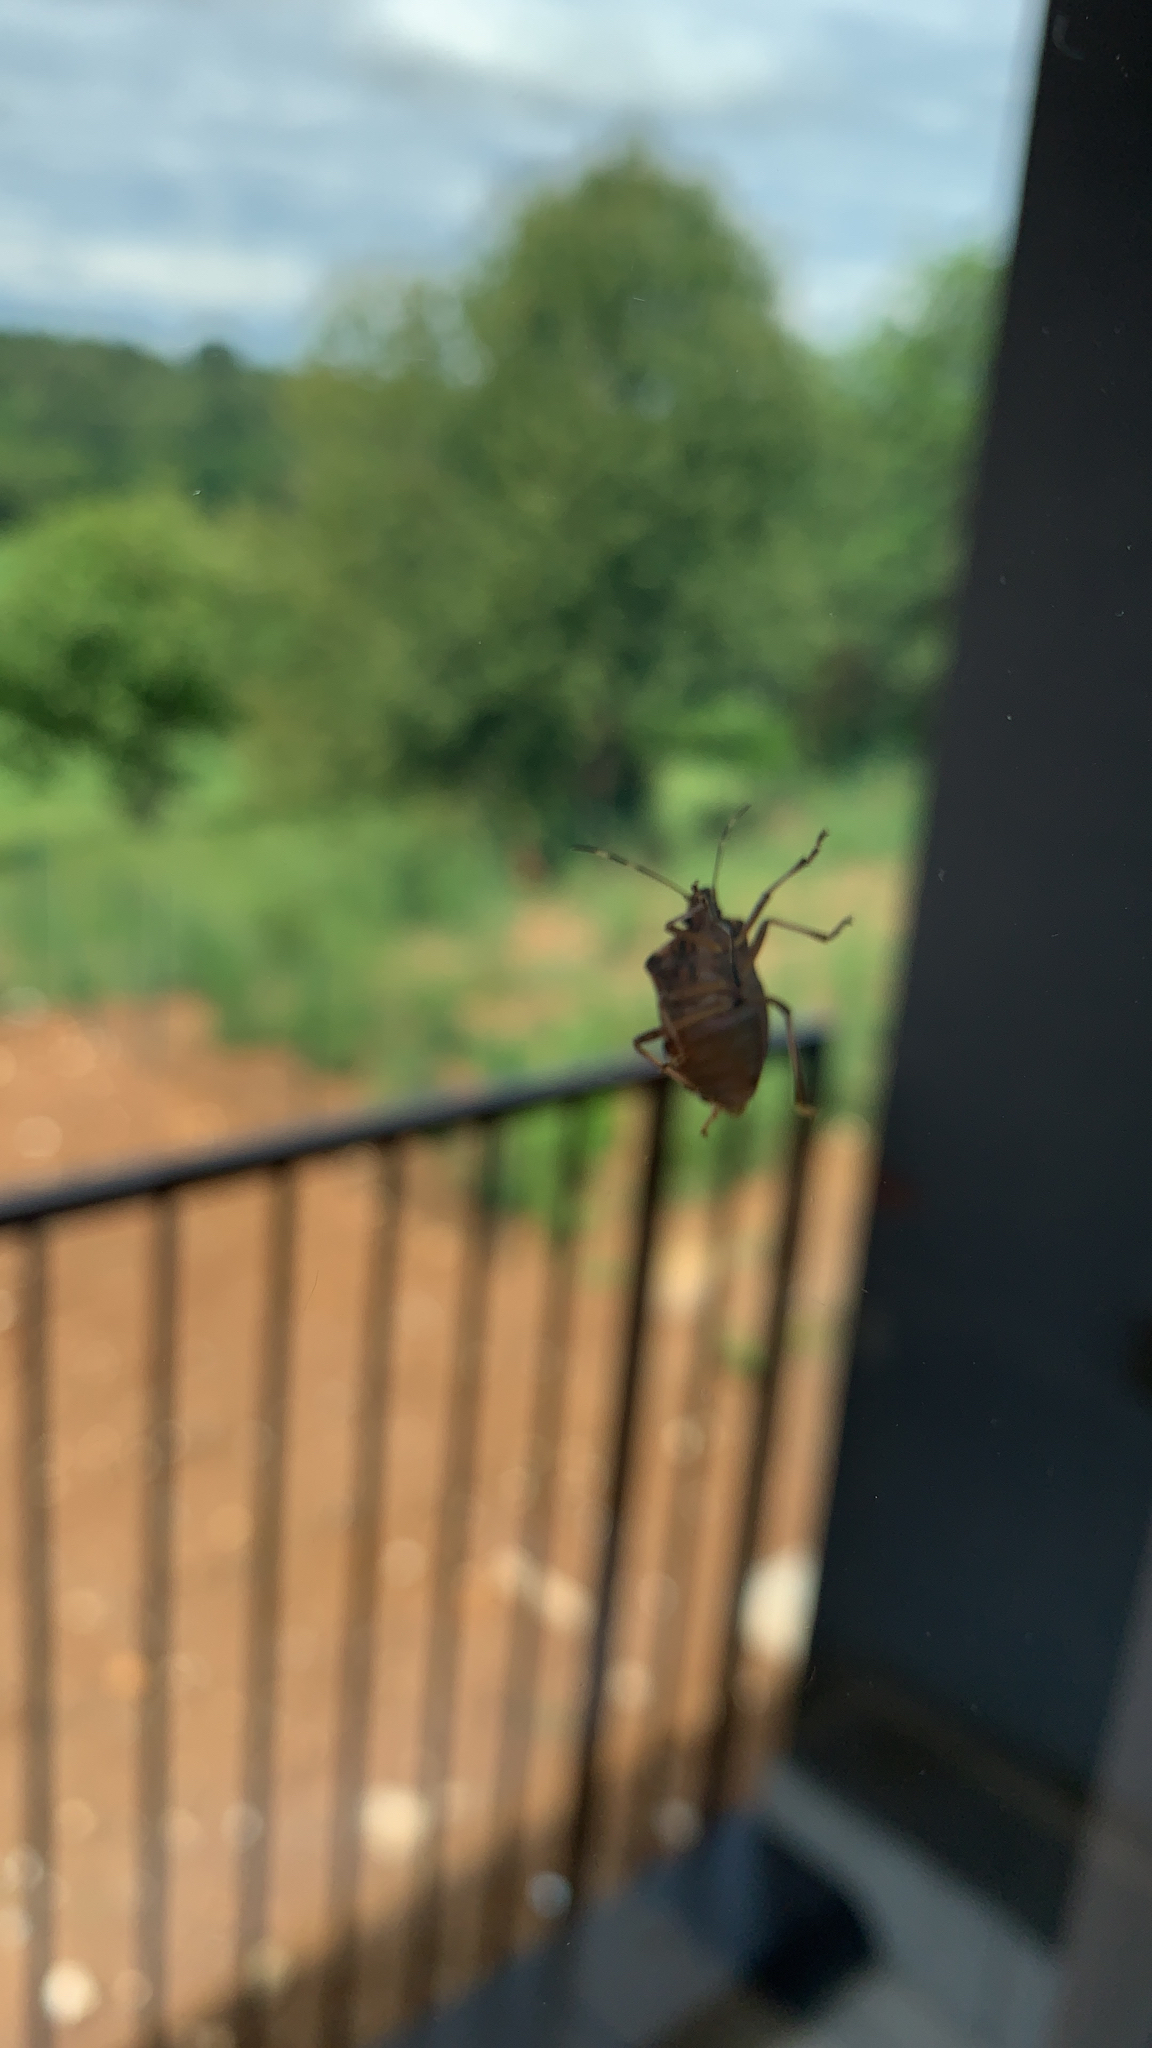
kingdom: Animalia
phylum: Arthropoda
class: Insecta
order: Hemiptera
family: Pentatomidae
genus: Halyomorpha
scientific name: Halyomorpha halys
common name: Brown marmorated stink bug
